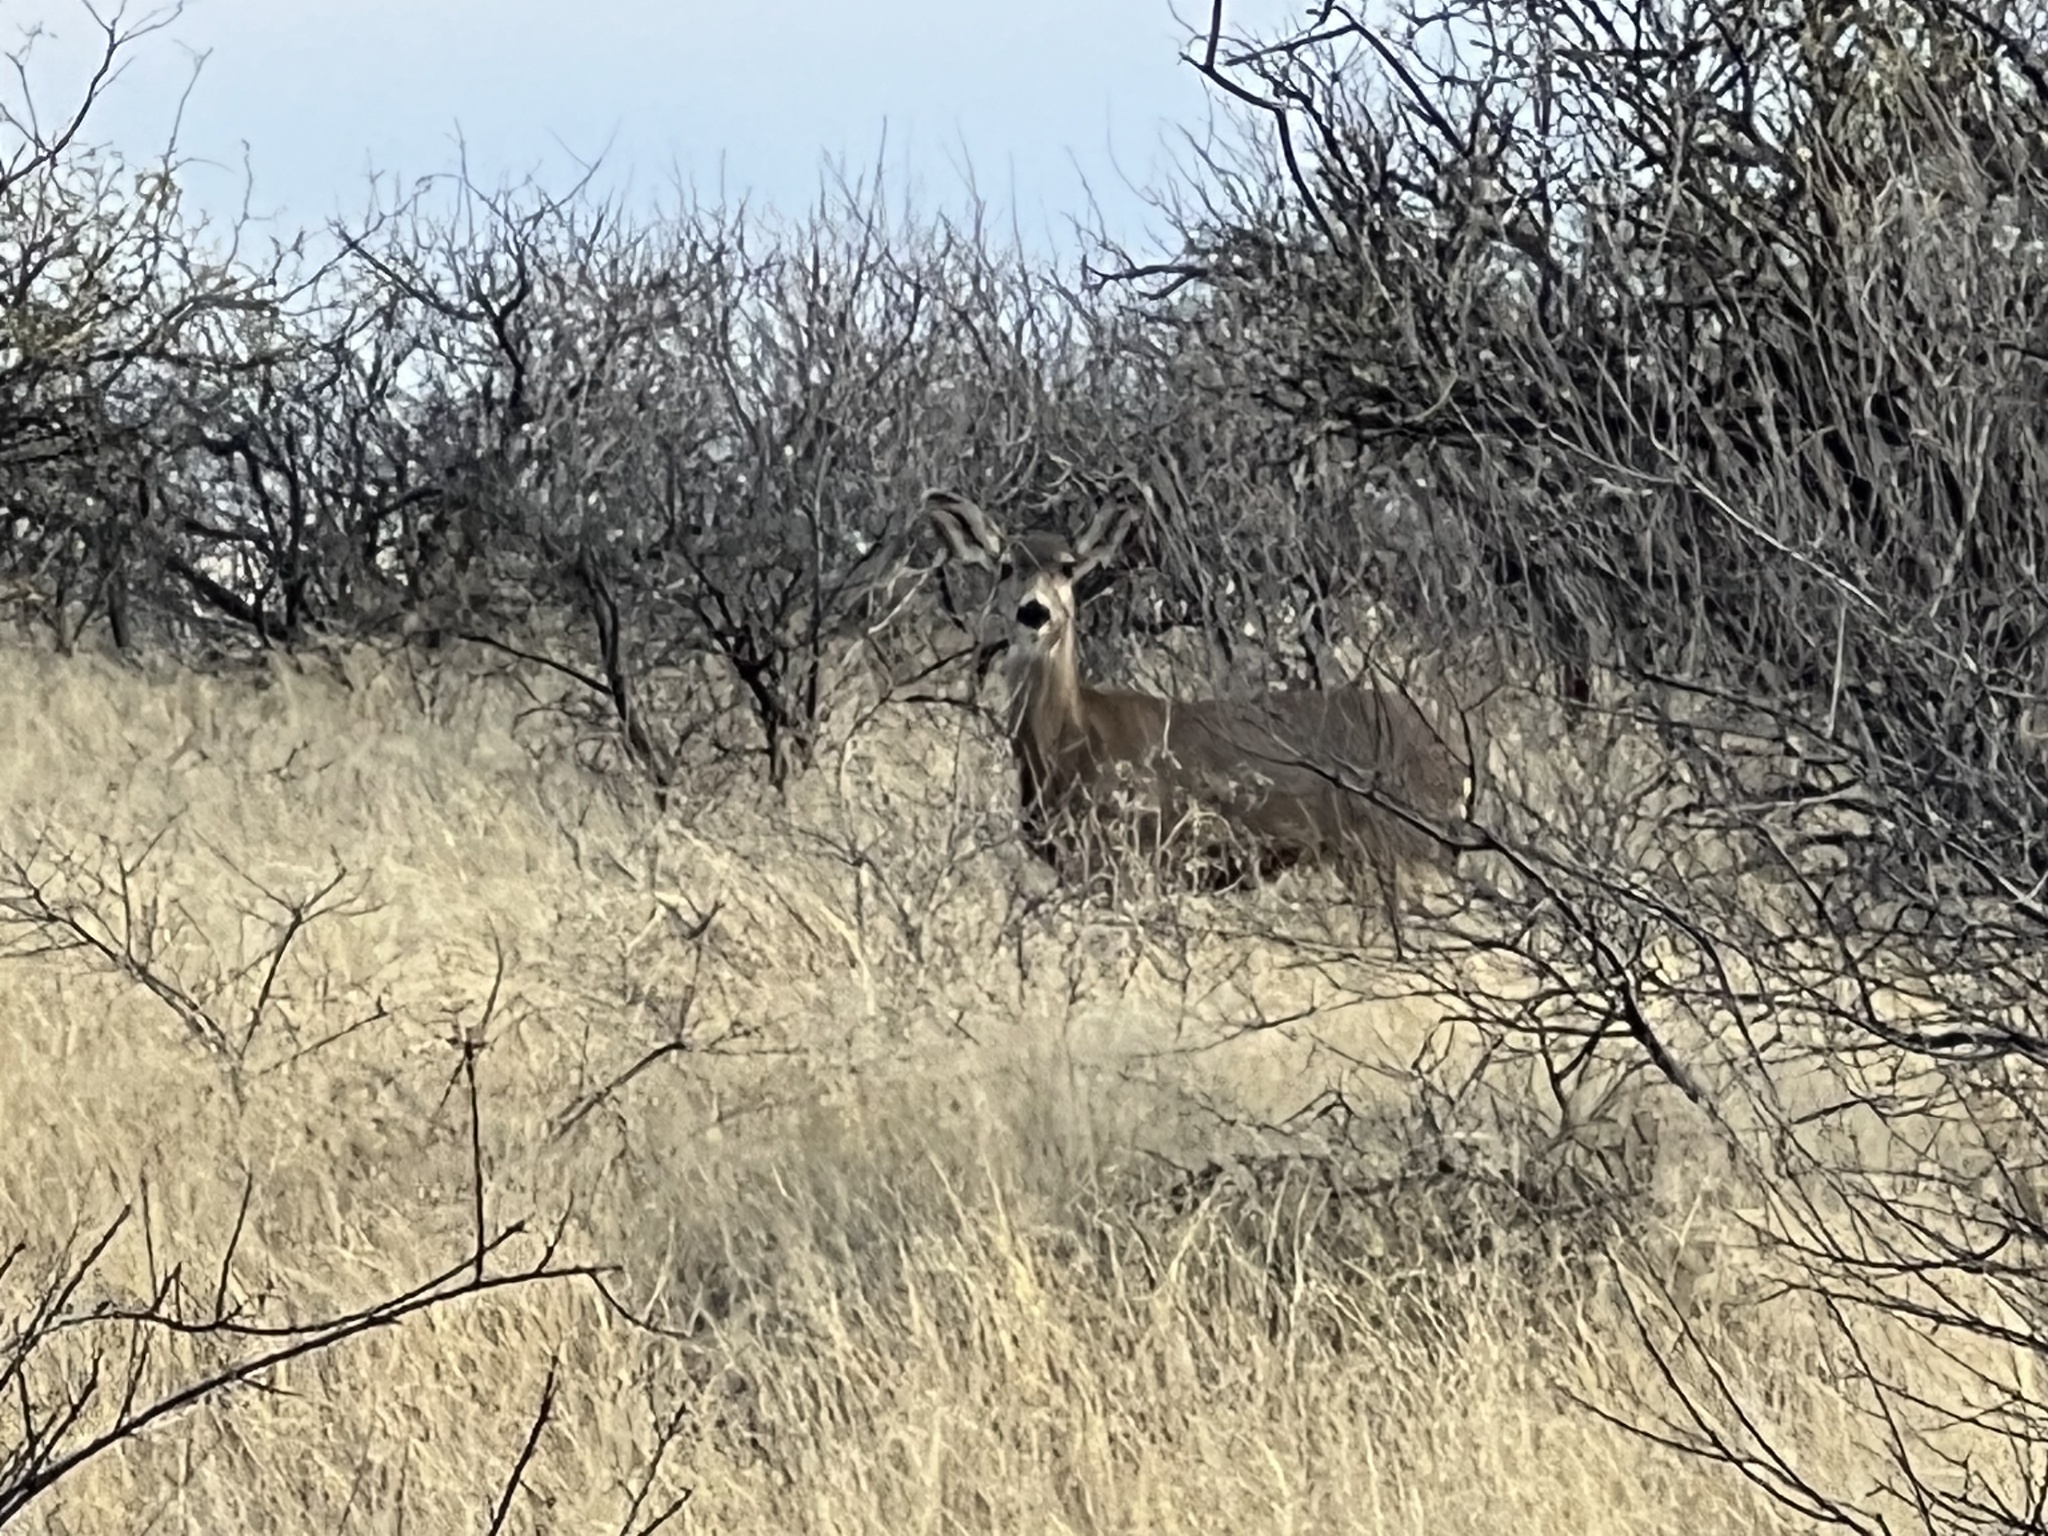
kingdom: Animalia
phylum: Chordata
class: Mammalia
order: Artiodactyla
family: Cervidae
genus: Odocoileus
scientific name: Odocoileus hemionus
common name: Mule deer
